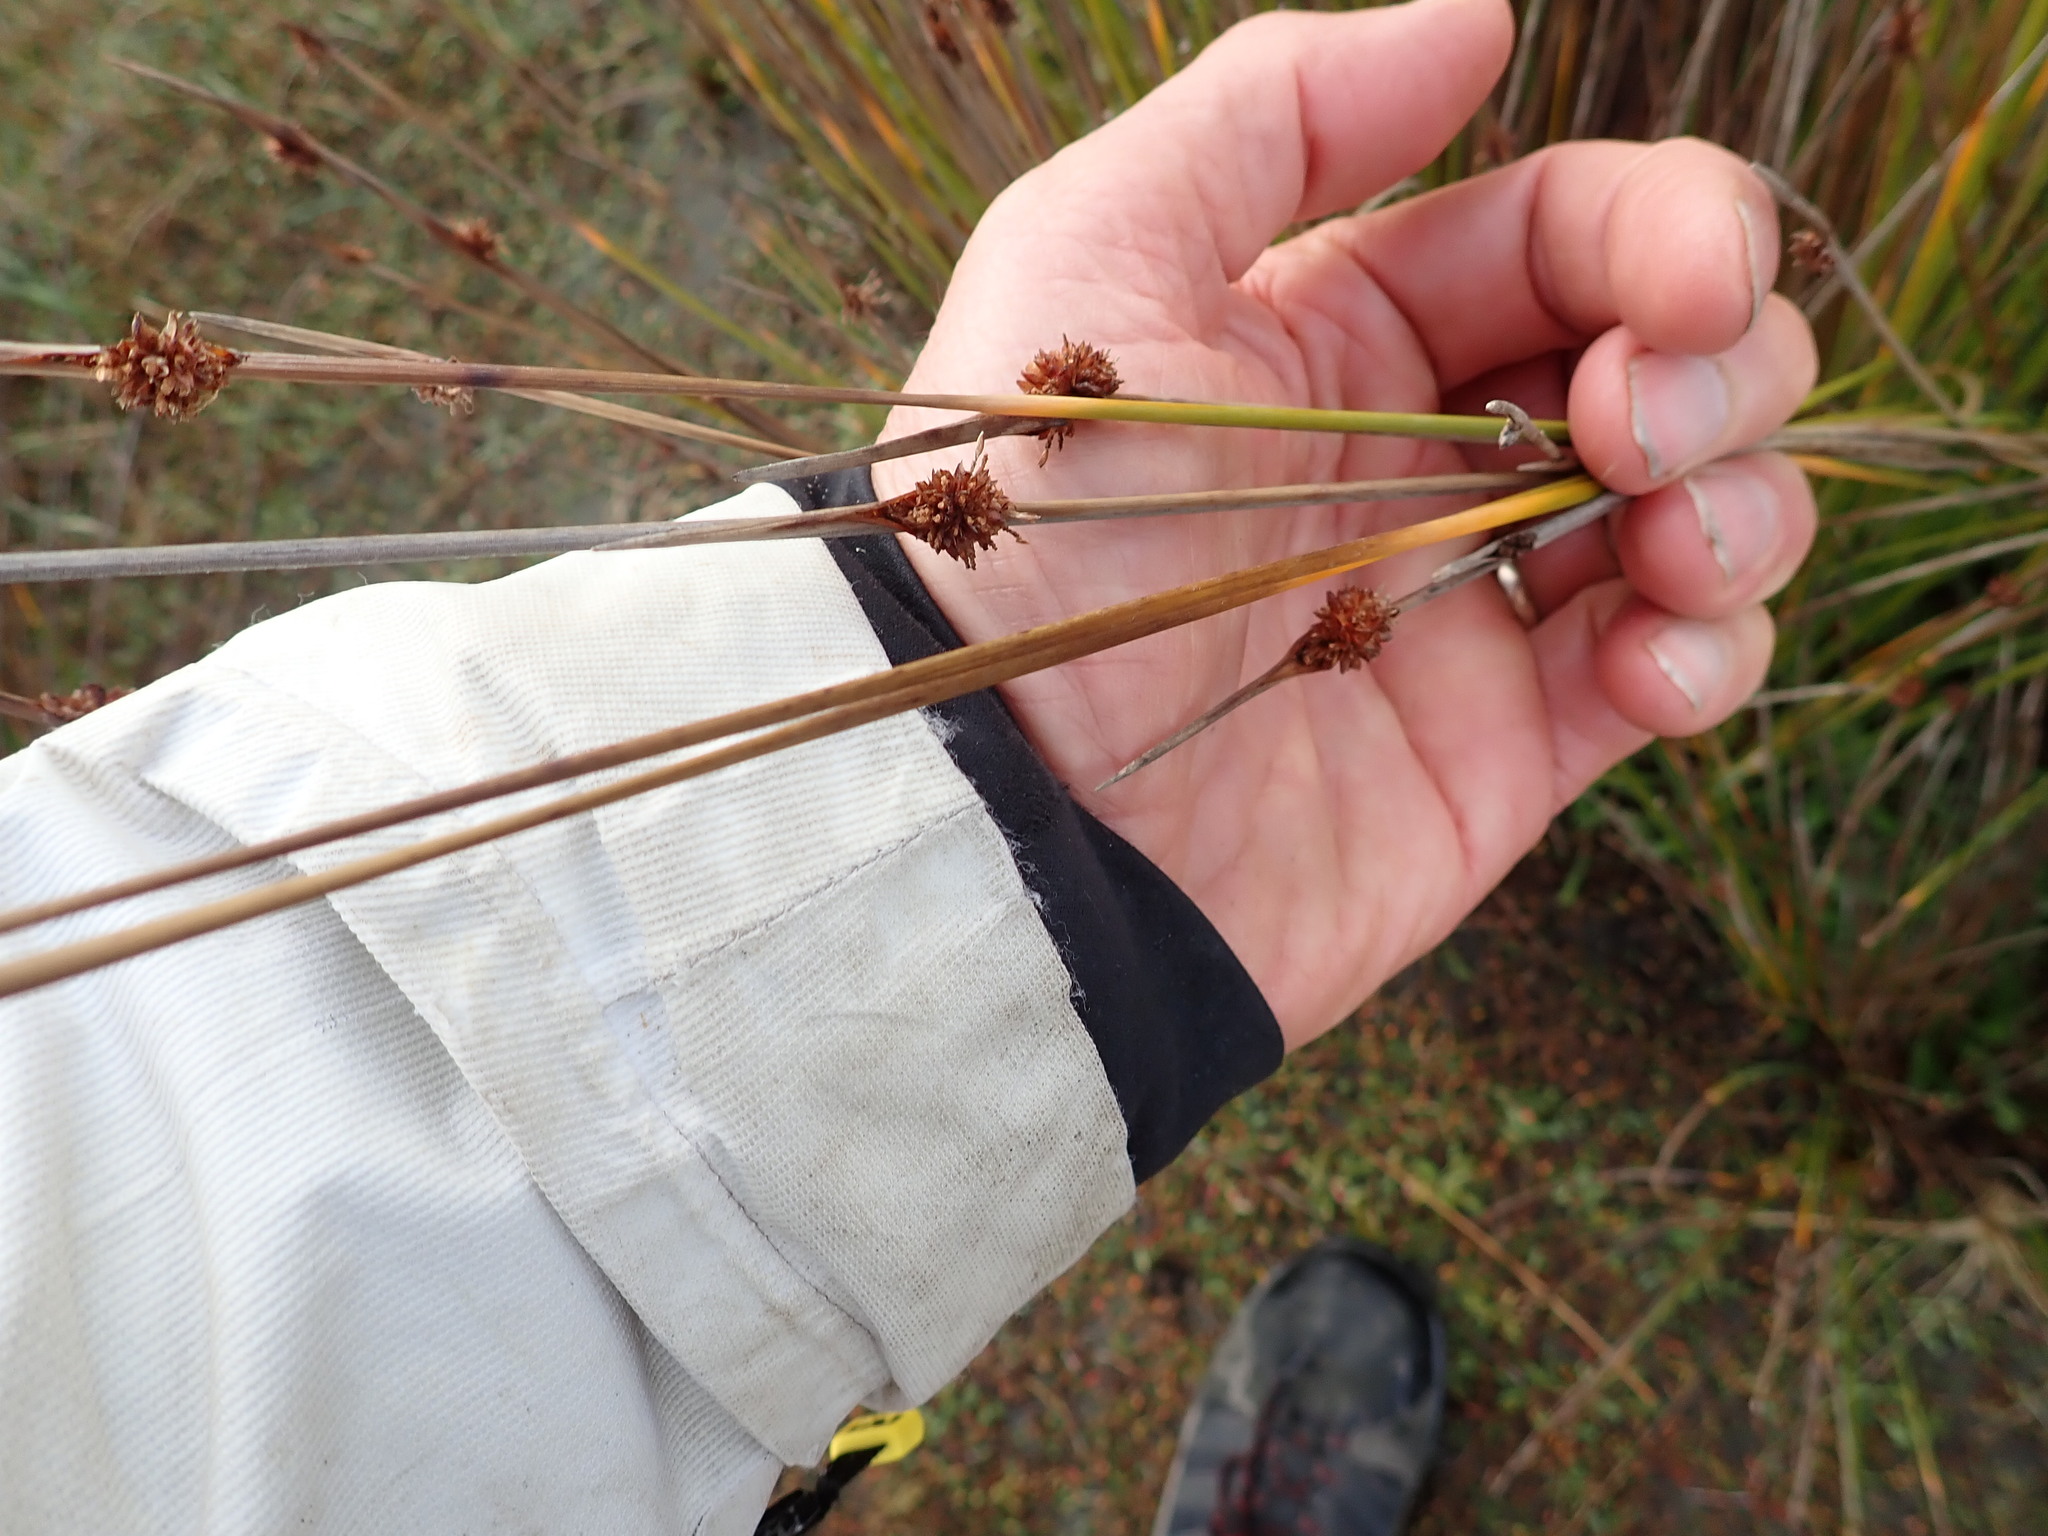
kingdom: Plantae
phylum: Tracheophyta
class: Liliopsida
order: Poales
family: Cyperaceae
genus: Ficinia
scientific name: Ficinia nodosa
